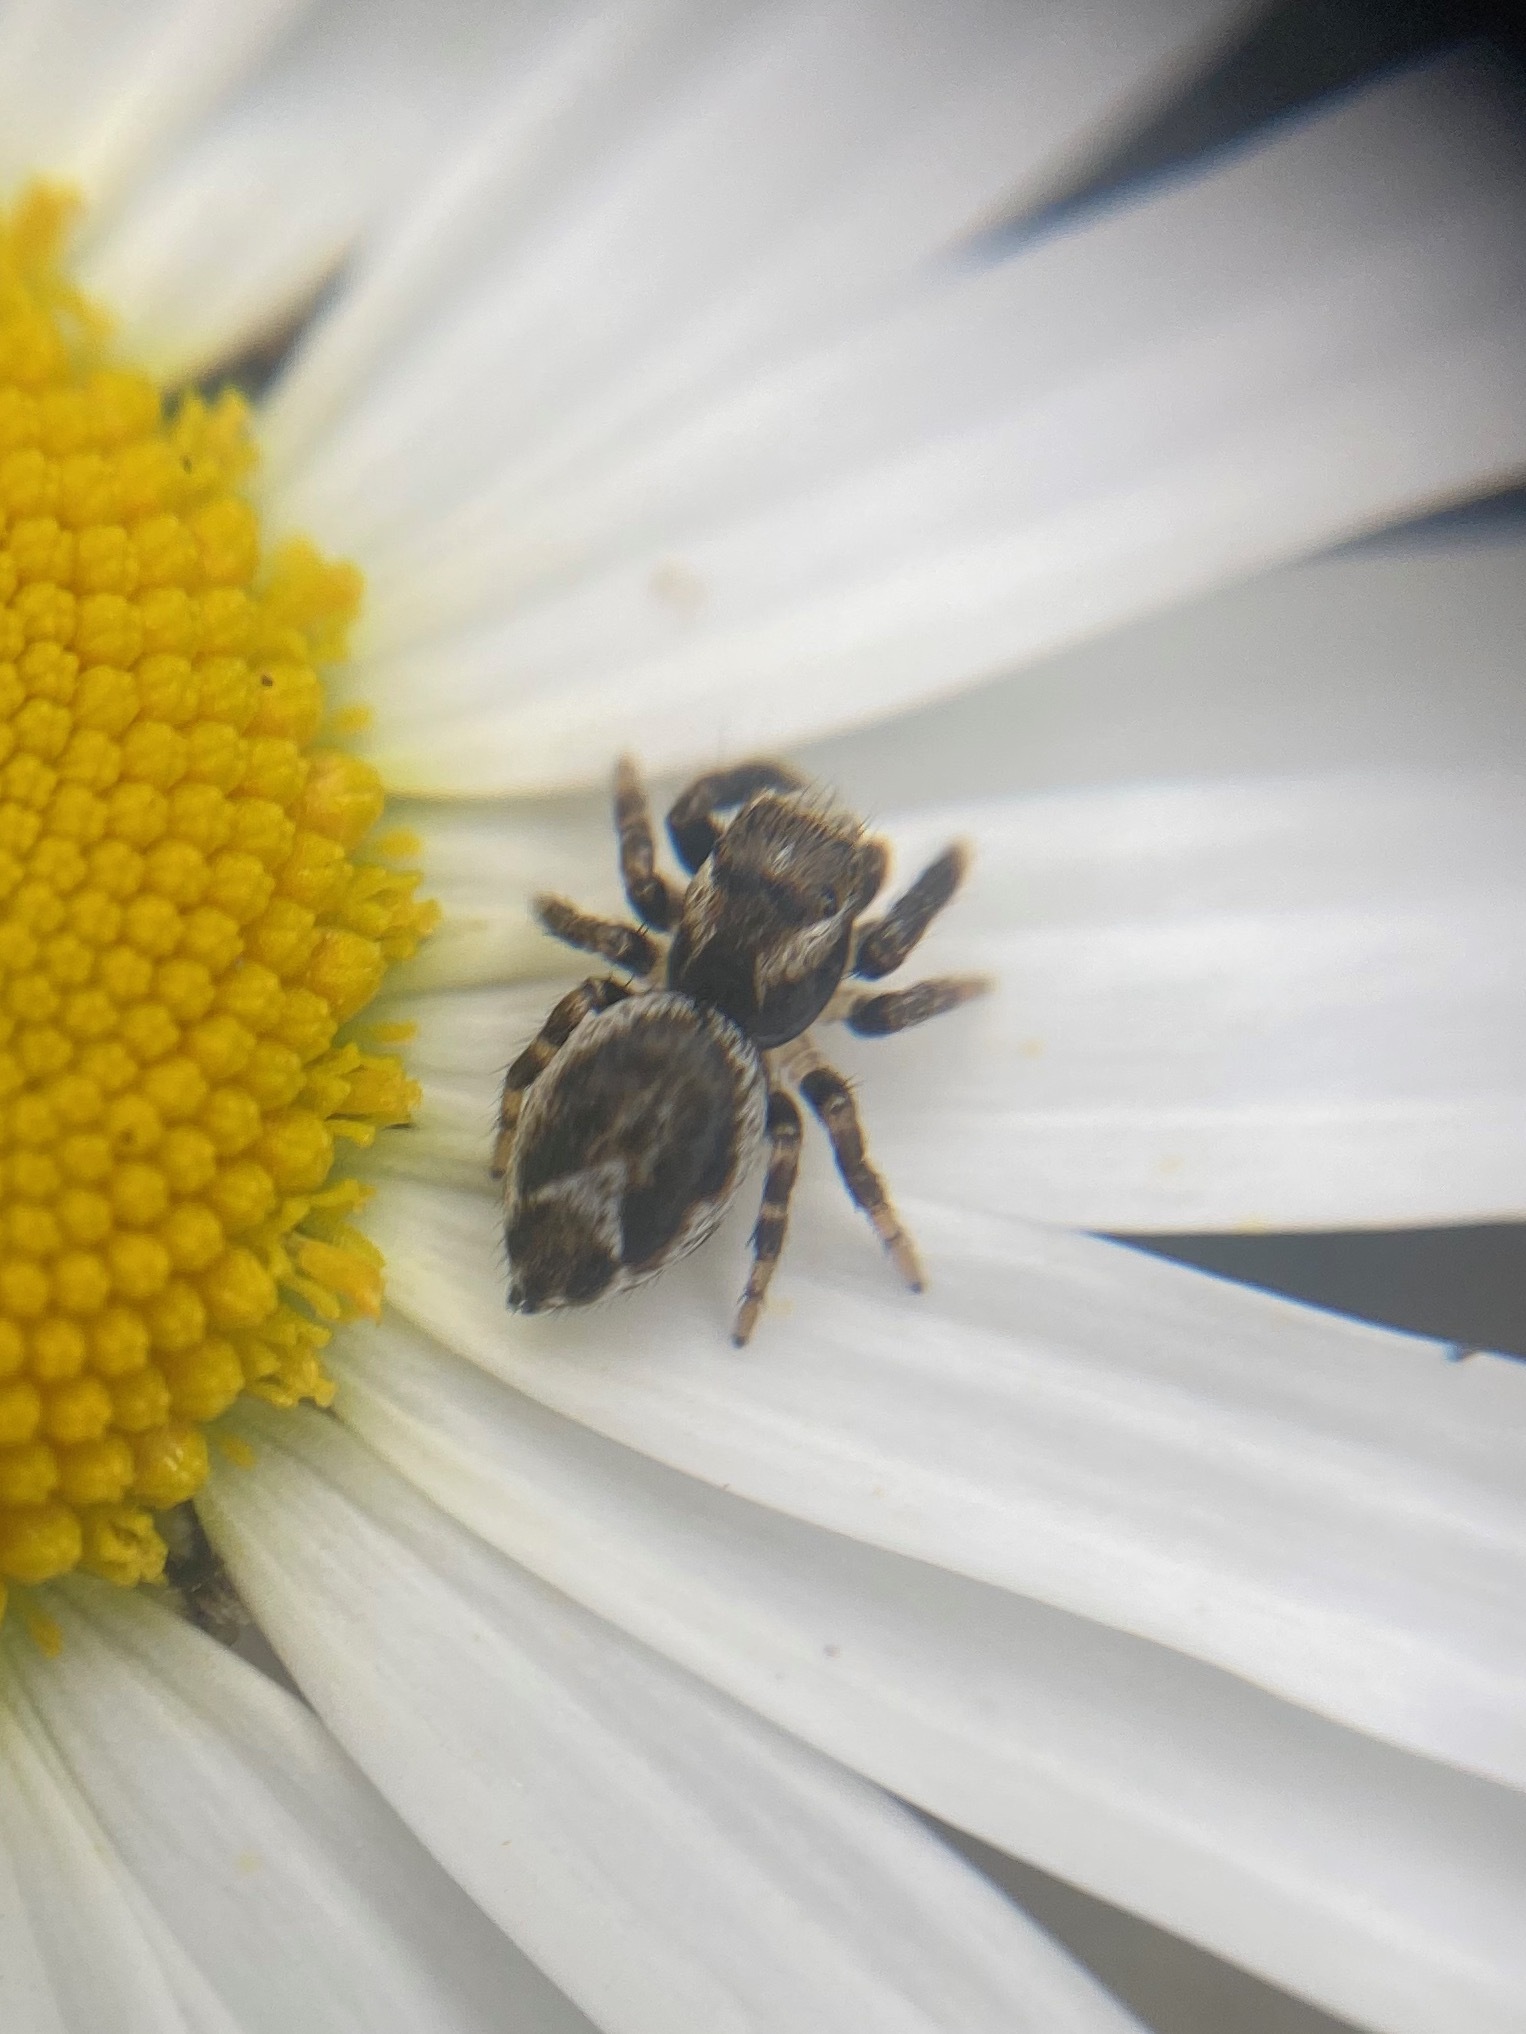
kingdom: Animalia
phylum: Arthropoda
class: Arachnida
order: Araneae
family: Salticidae
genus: Evarcha
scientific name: Evarcha proszynskii
